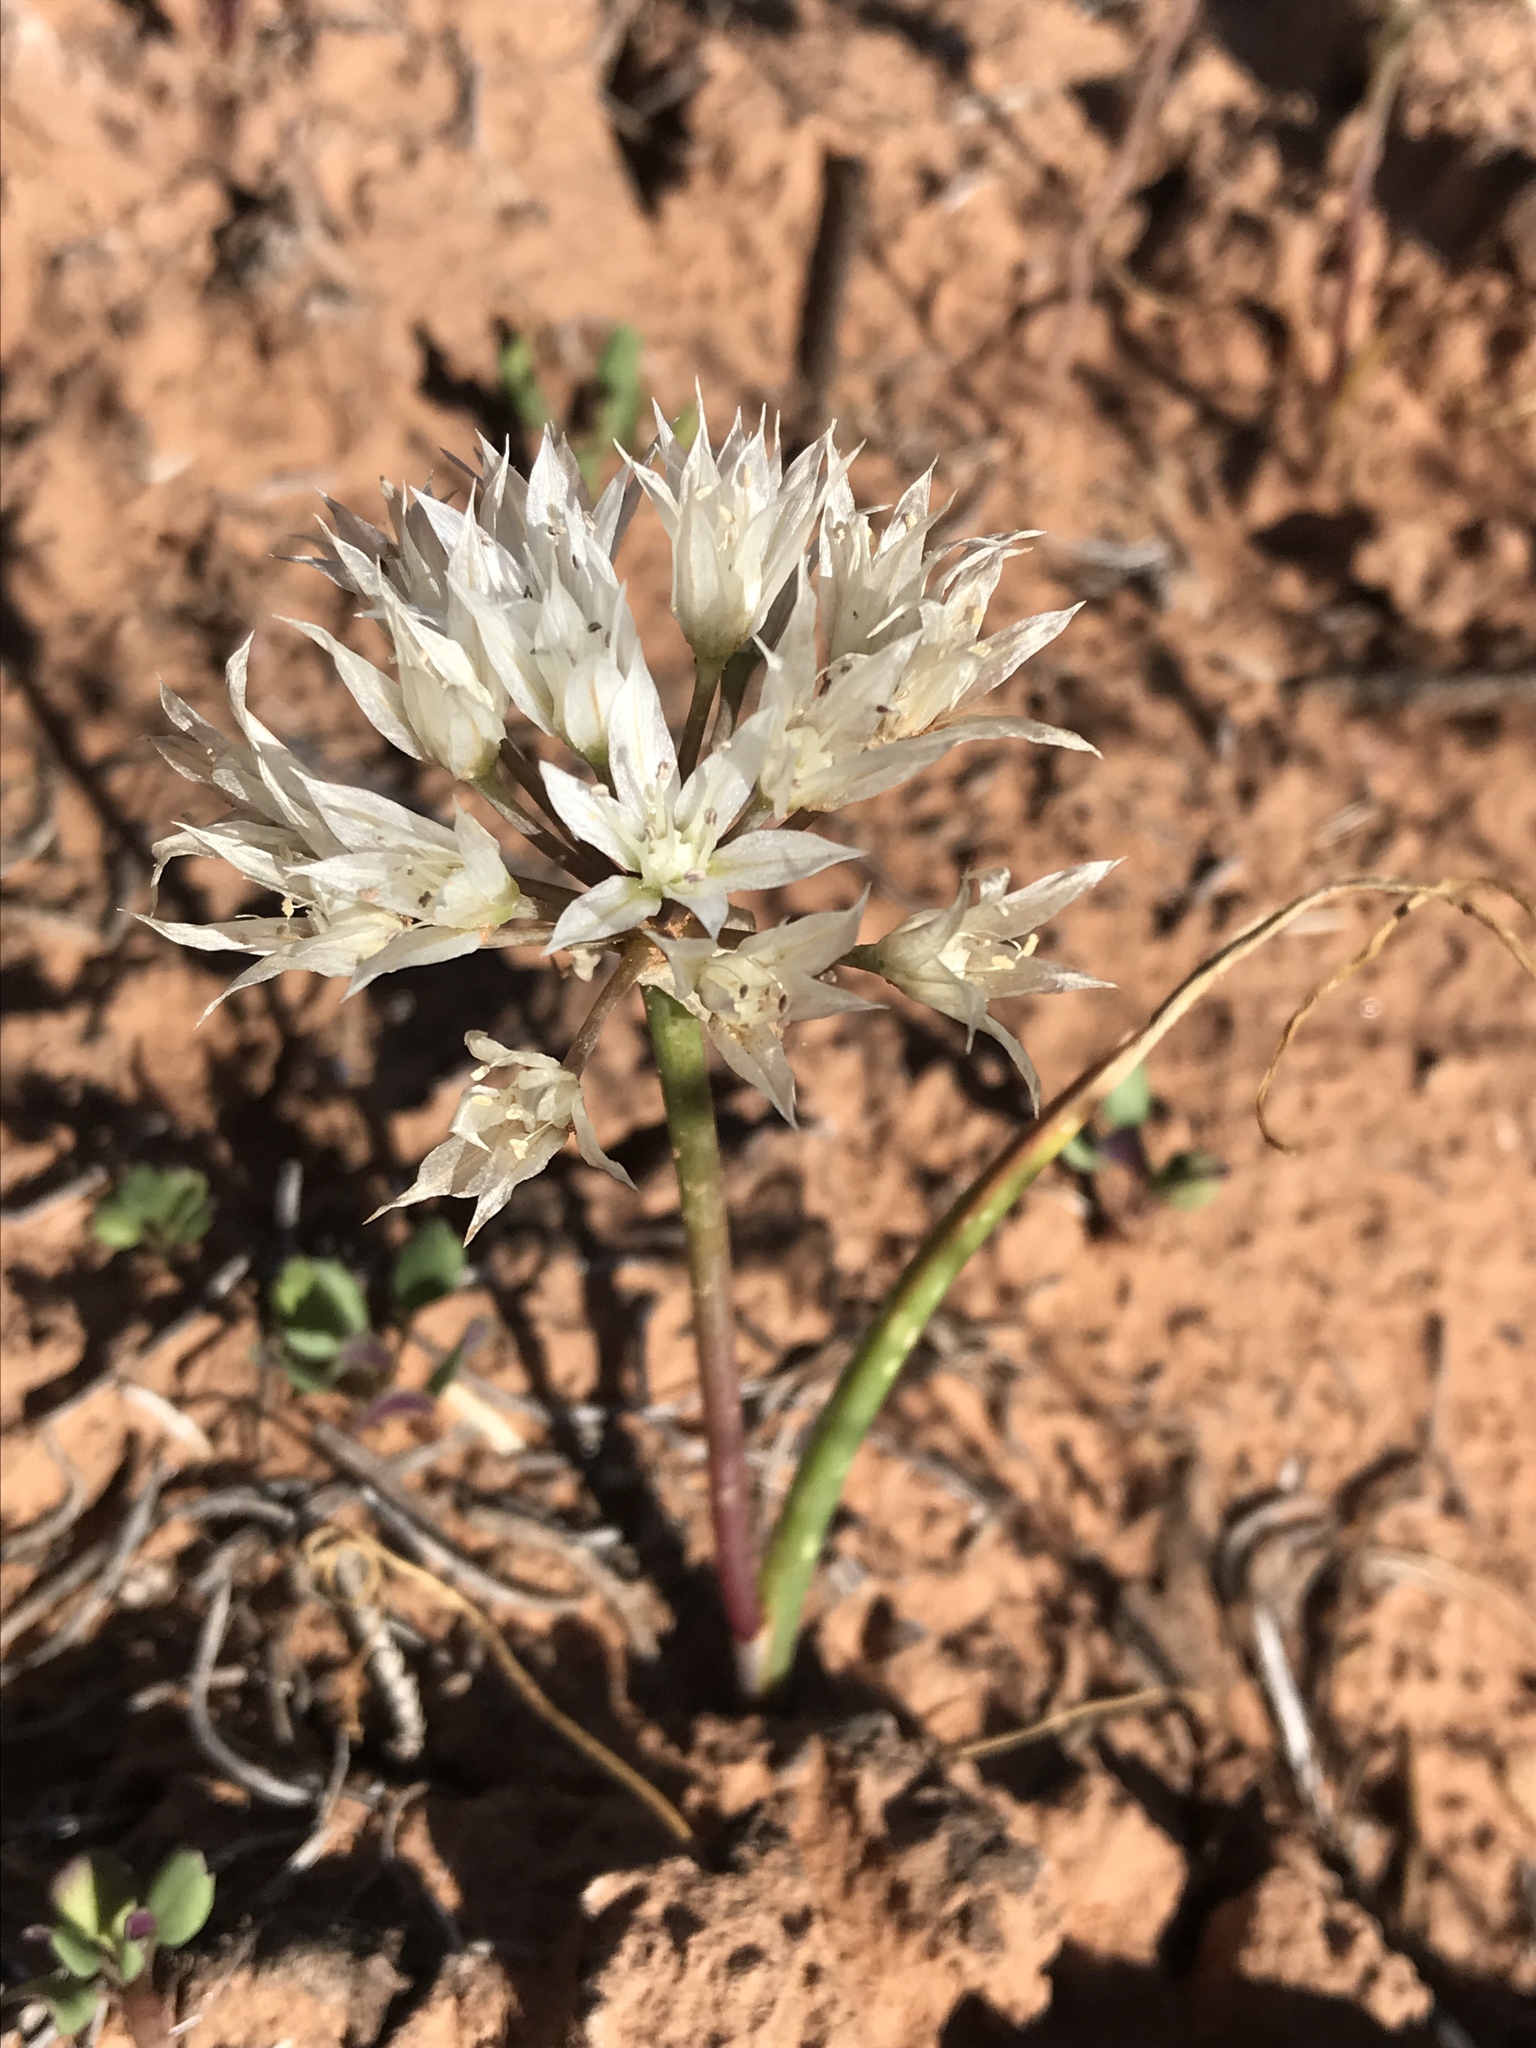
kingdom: Plantae
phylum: Tracheophyta
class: Liliopsida
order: Asparagales
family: Amaryllidaceae
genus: Allium
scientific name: Allium nevadense
